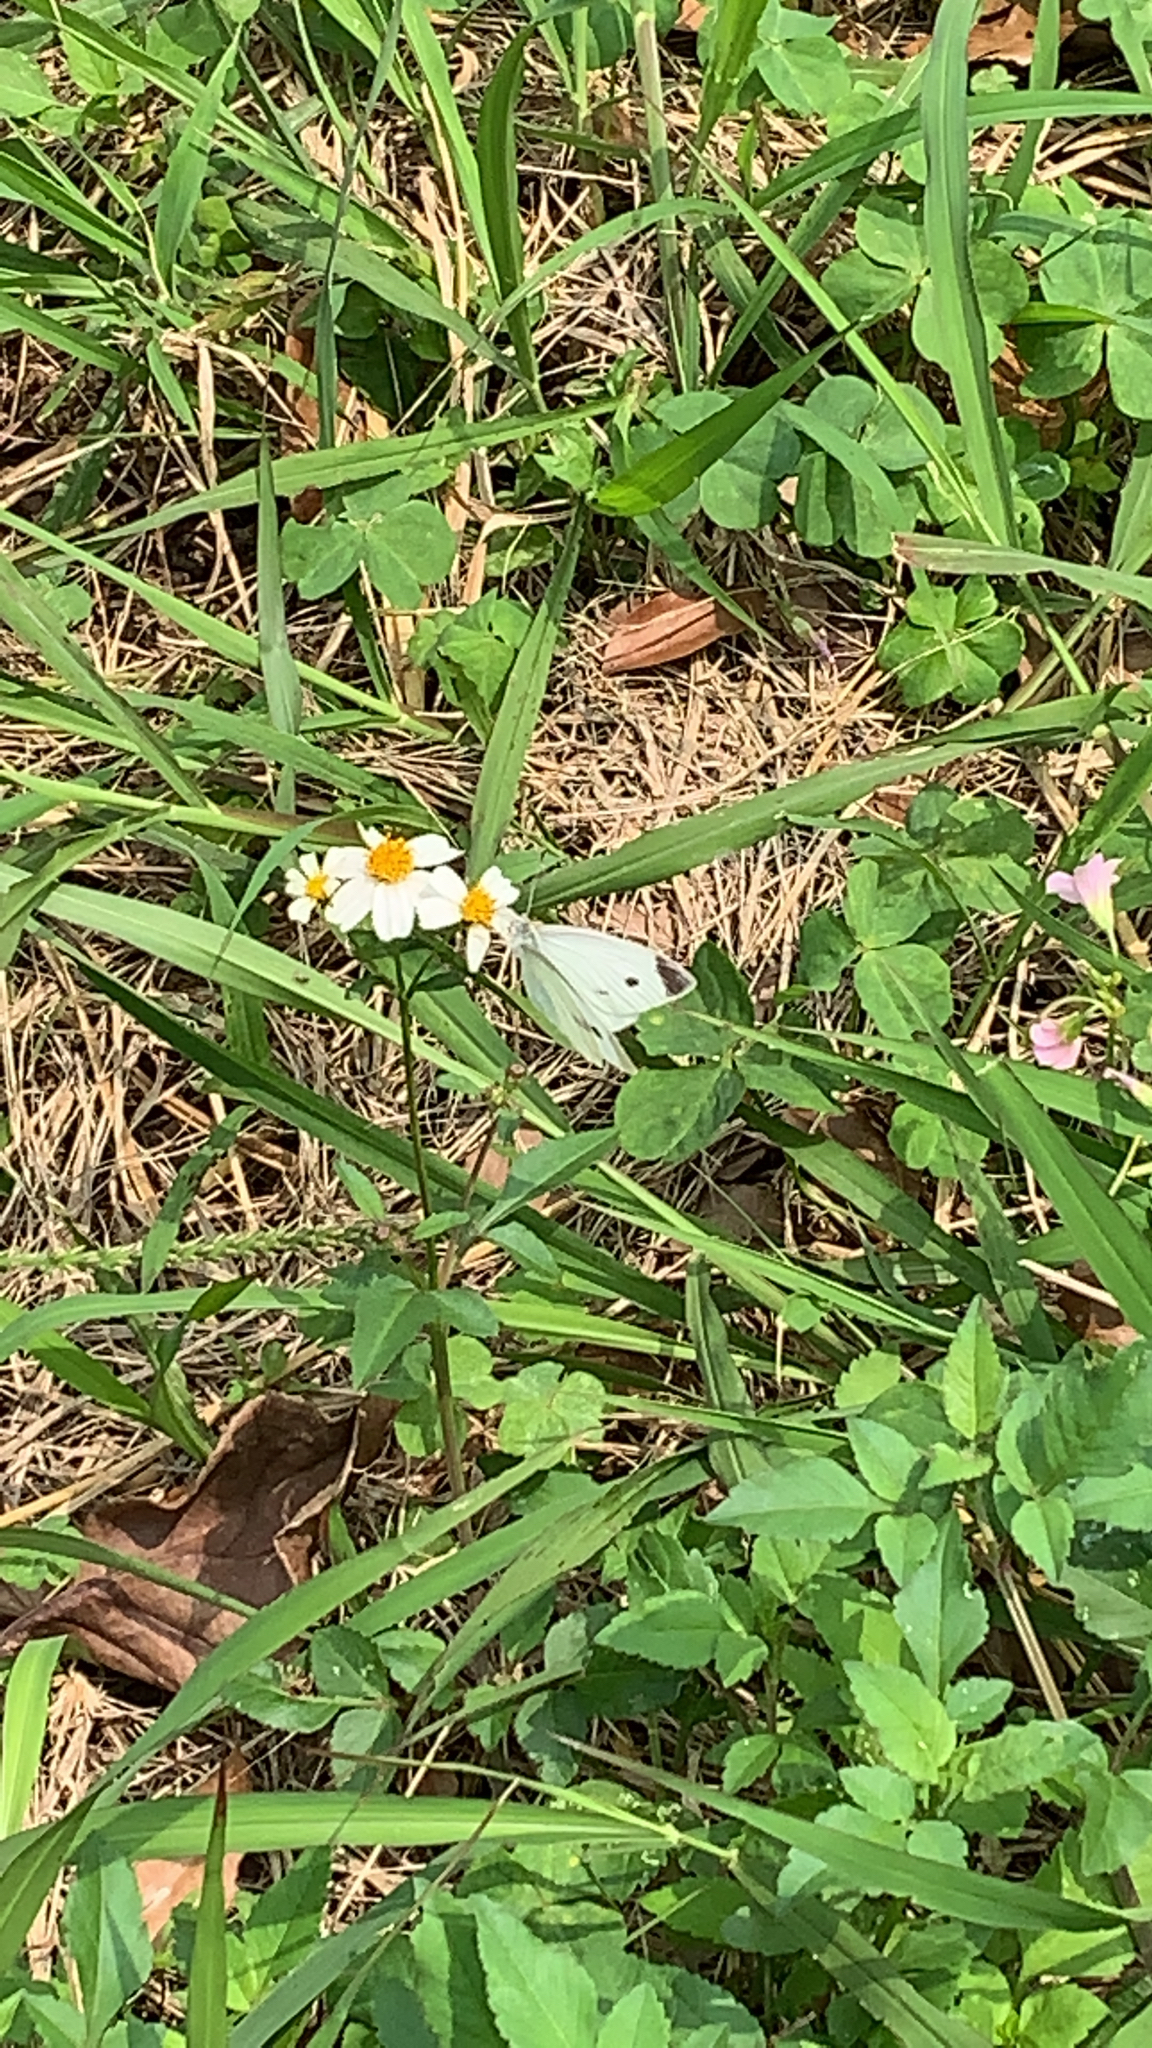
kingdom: Animalia
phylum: Arthropoda
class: Insecta
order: Lepidoptera
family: Pieridae
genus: Pieris
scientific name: Pieris rapae
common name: Small white
